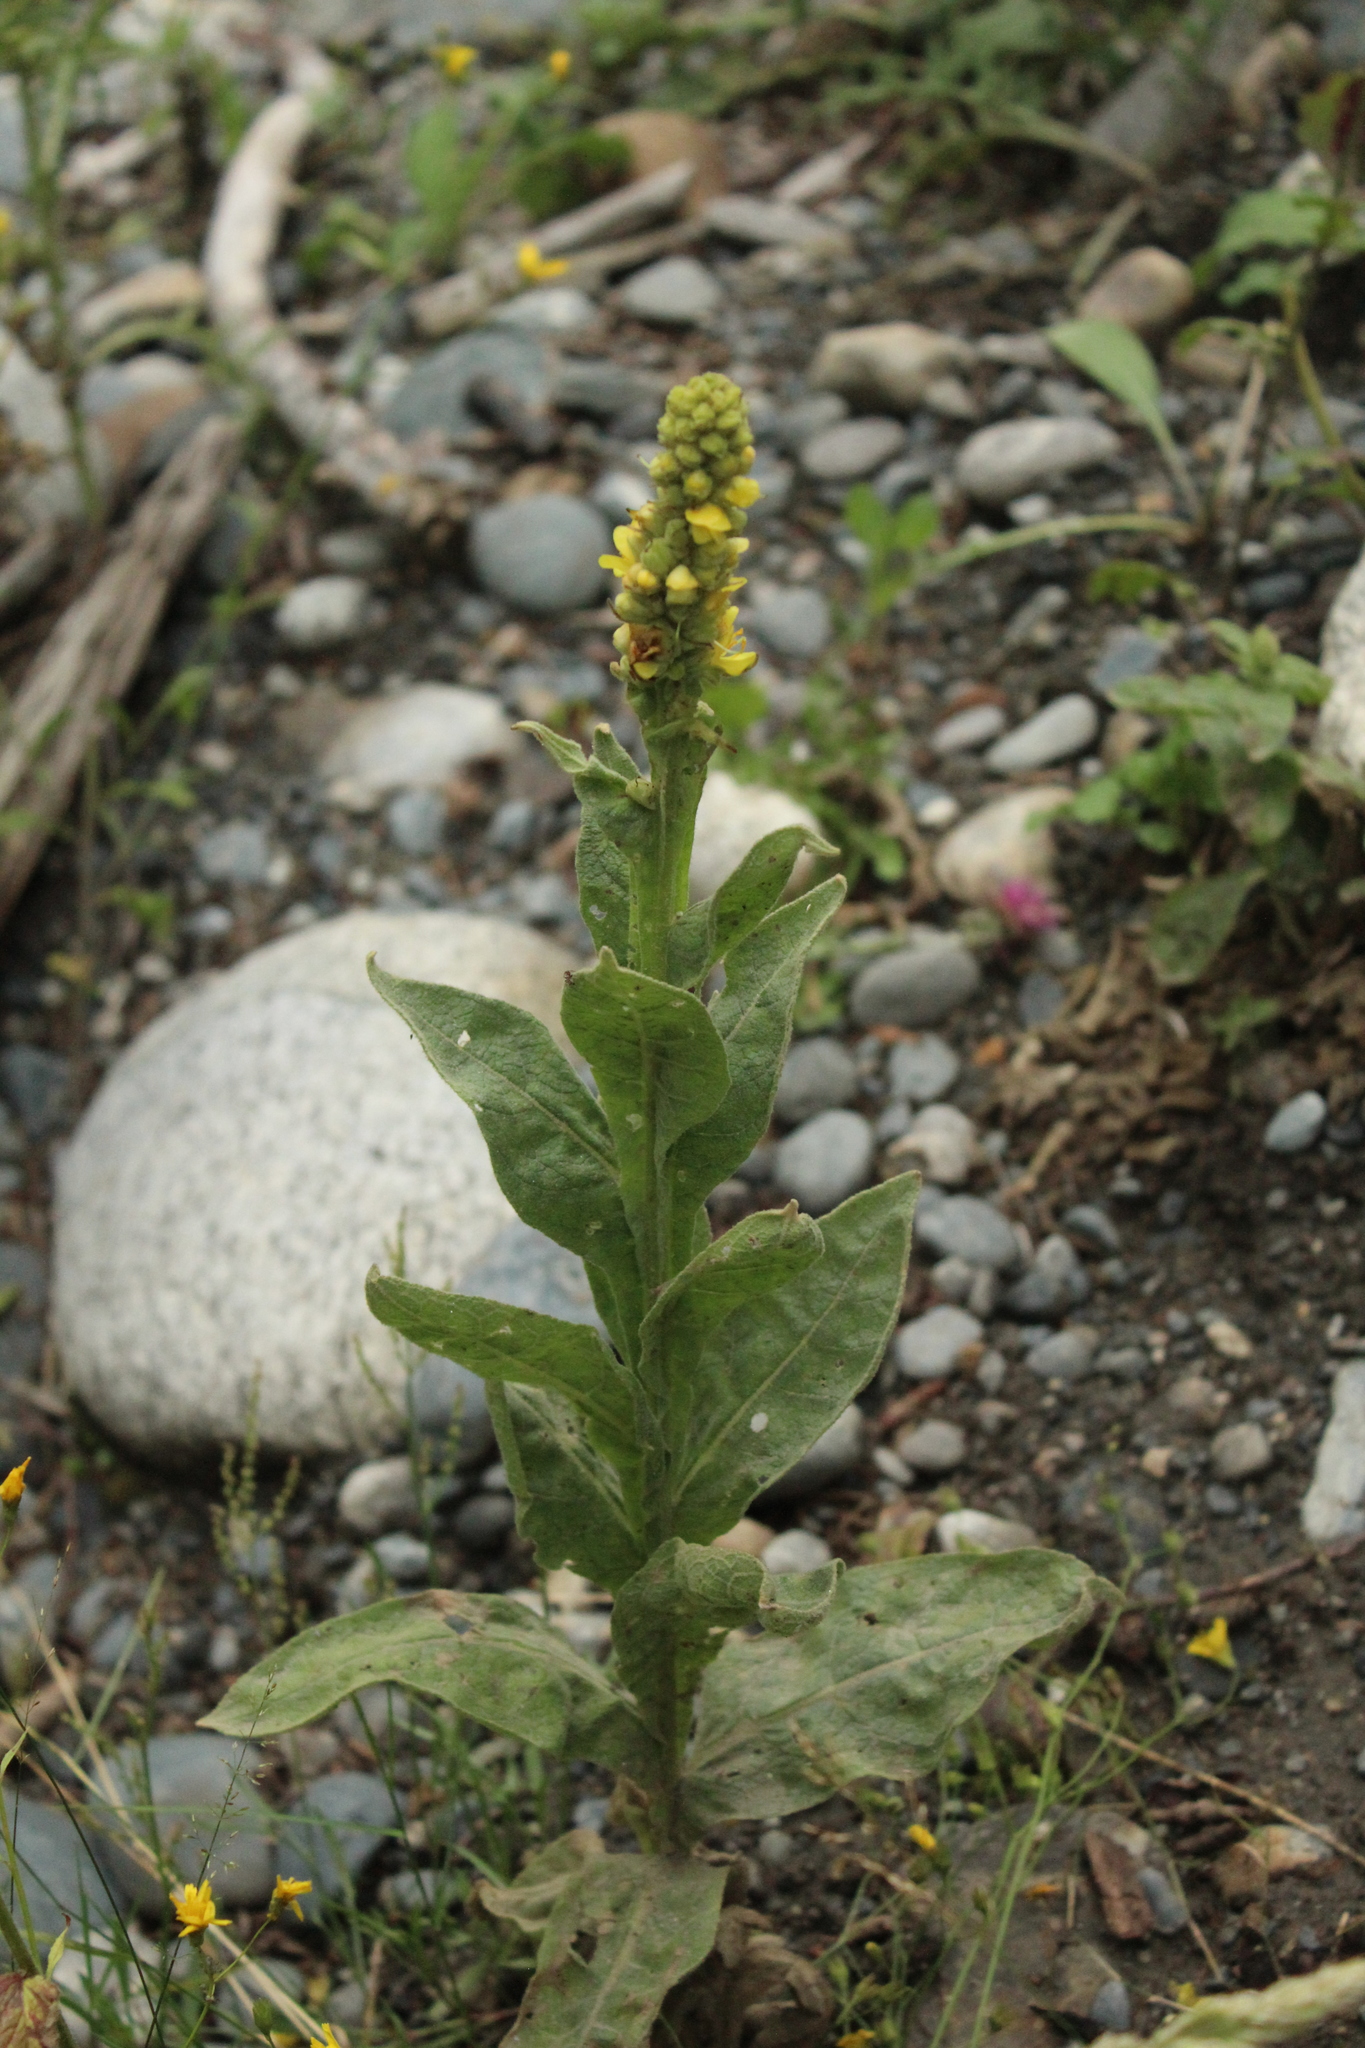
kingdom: Plantae
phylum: Tracheophyta
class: Magnoliopsida
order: Lamiales
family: Scrophulariaceae
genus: Verbascum
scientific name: Verbascum thapsus
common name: Common mullein
